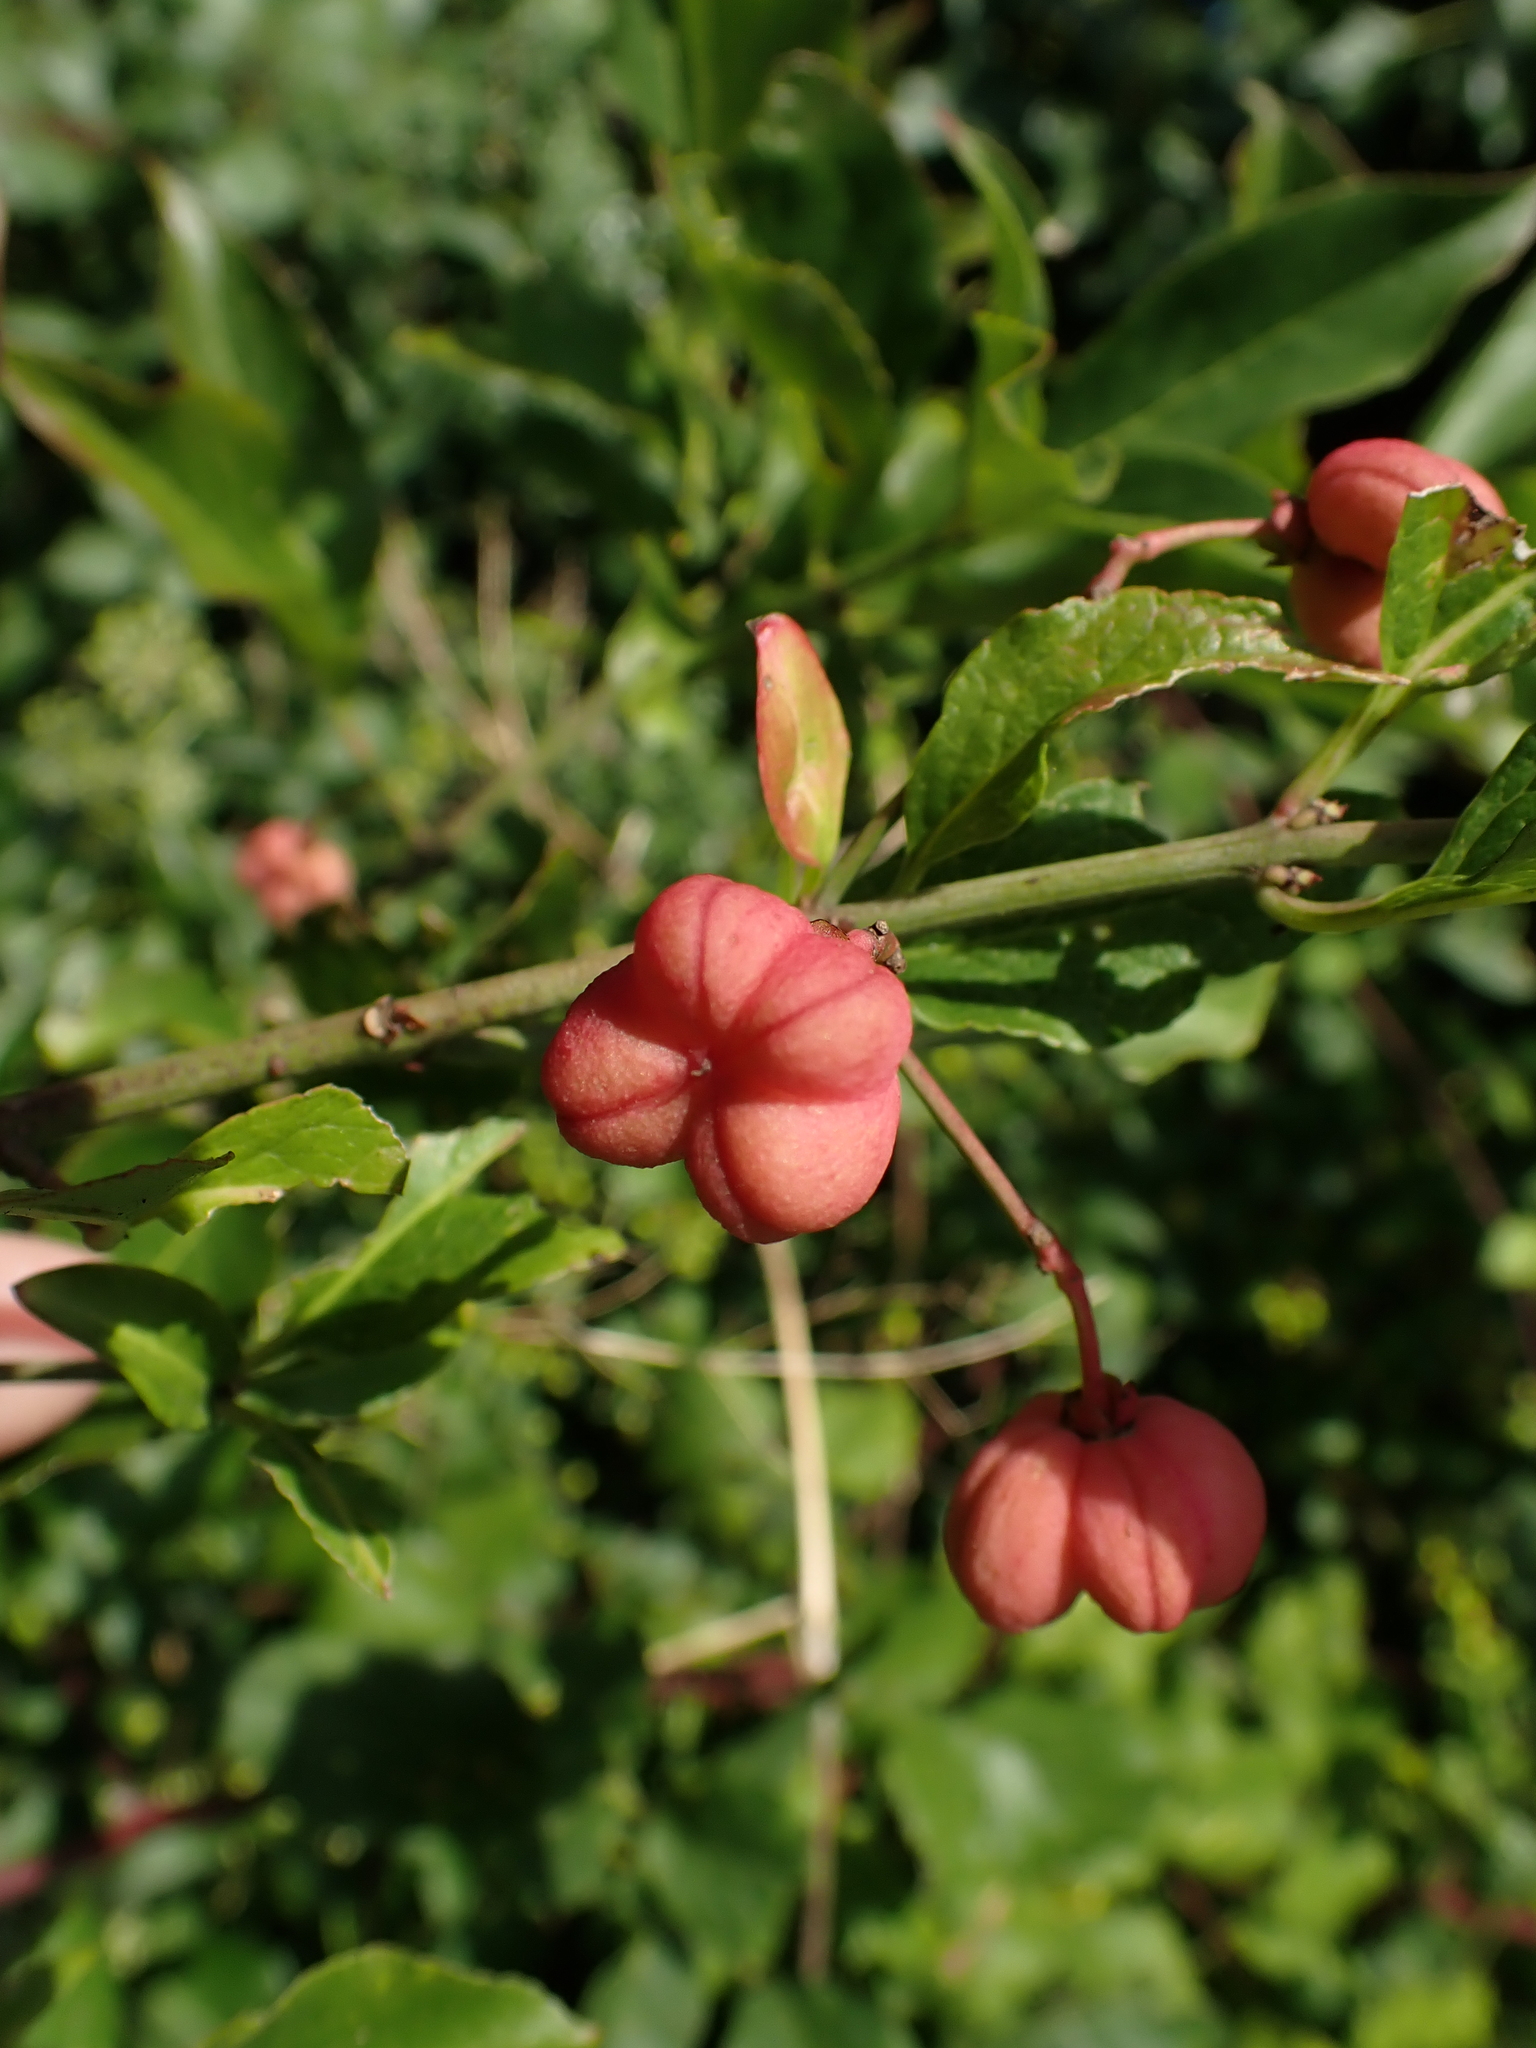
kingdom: Plantae
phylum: Tracheophyta
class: Magnoliopsida
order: Celastrales
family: Celastraceae
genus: Euonymus
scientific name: Euonymus europaeus
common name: Spindle
